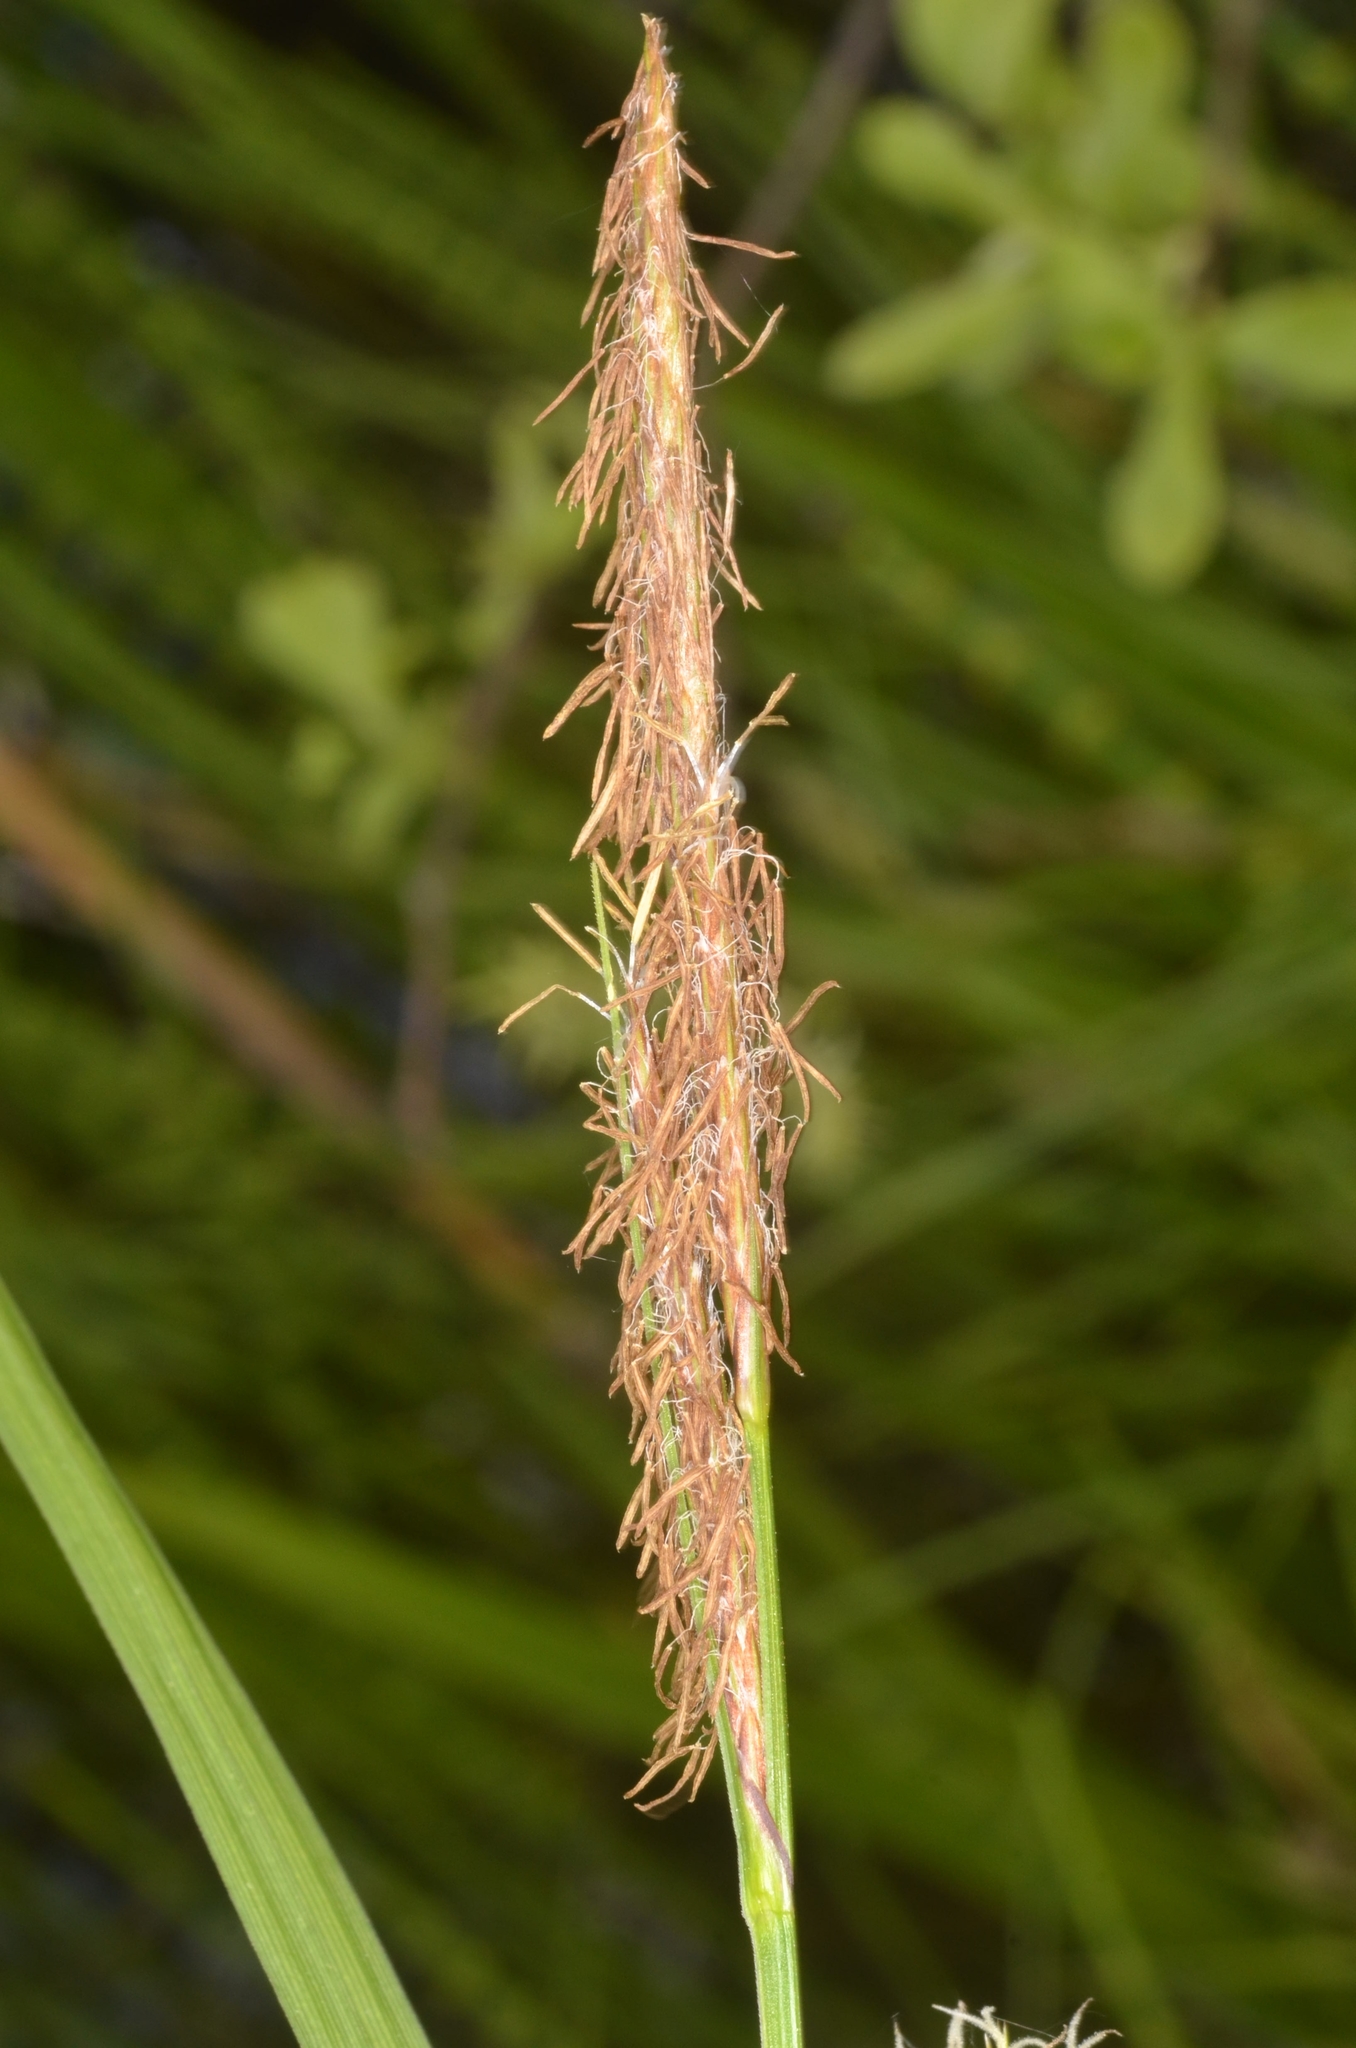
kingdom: Plantae
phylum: Tracheophyta
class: Liliopsida
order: Poales
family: Cyperaceae
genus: Carex
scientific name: Carex vesicaria
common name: Bladder-sedge
